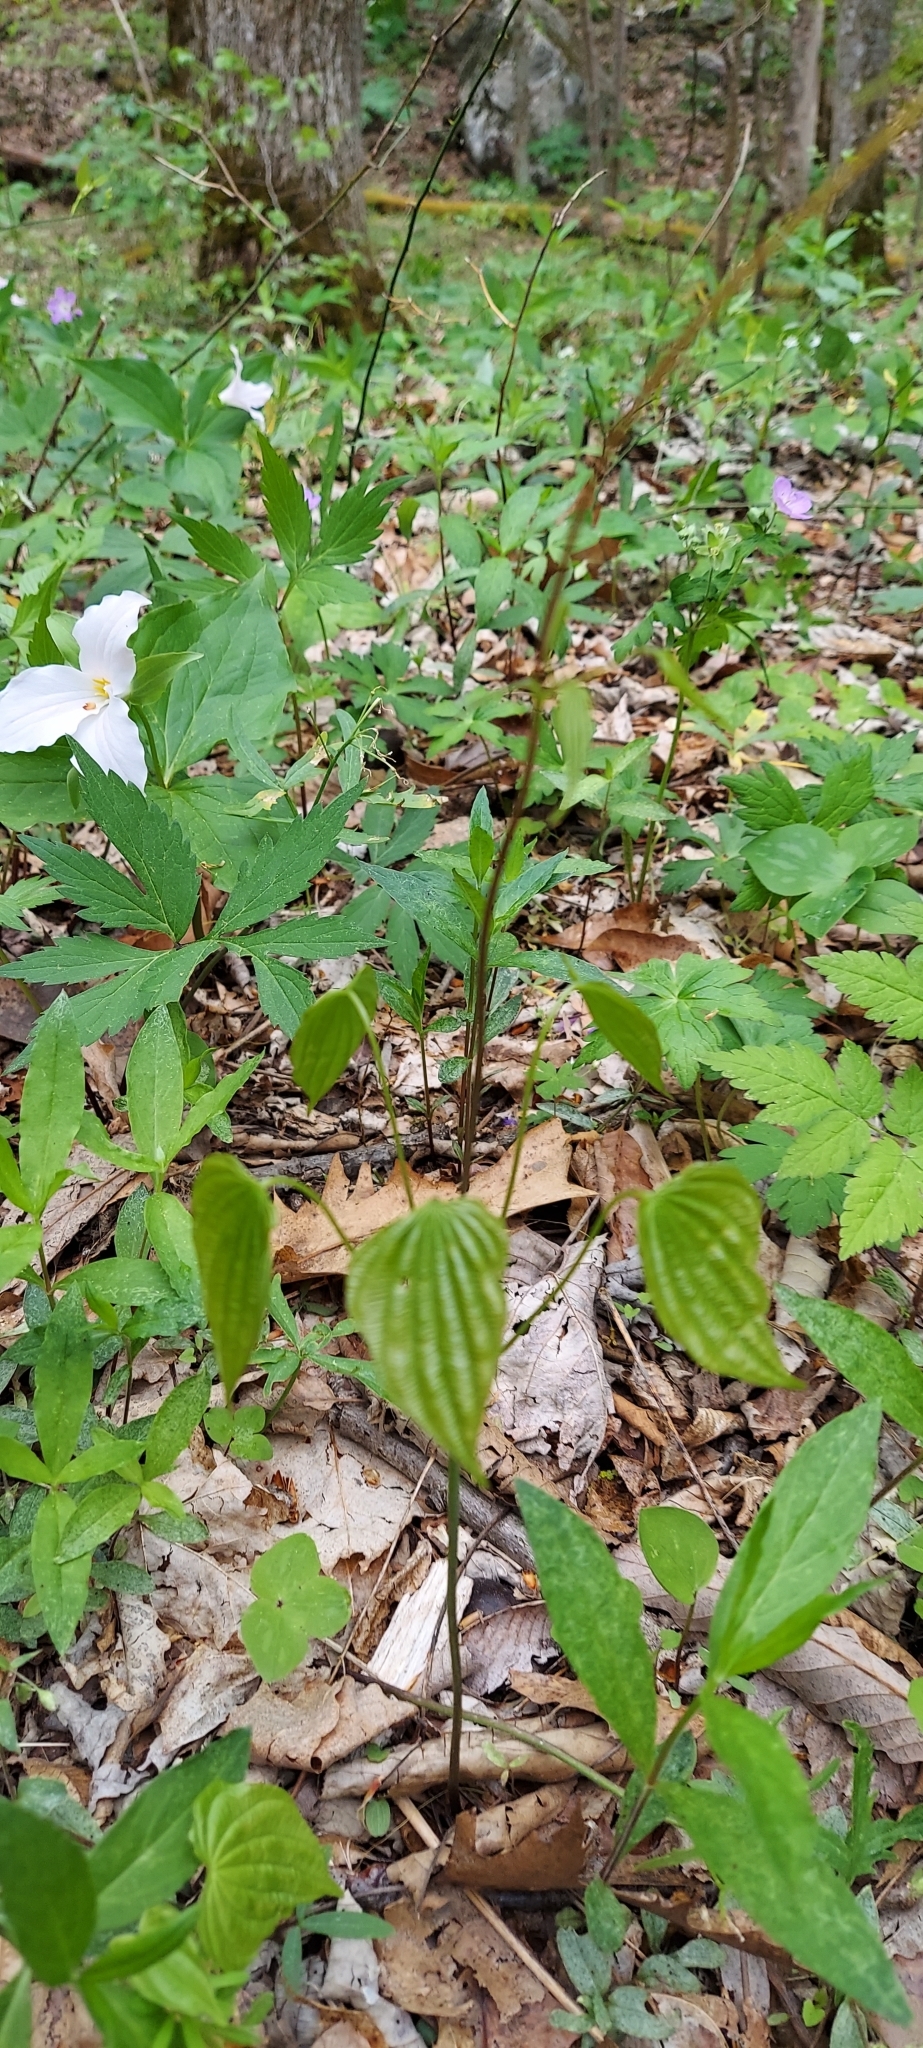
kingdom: Plantae
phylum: Tracheophyta
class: Liliopsida
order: Dioscoreales
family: Dioscoreaceae
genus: Dioscorea
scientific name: Dioscorea villosa
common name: Wild yam
